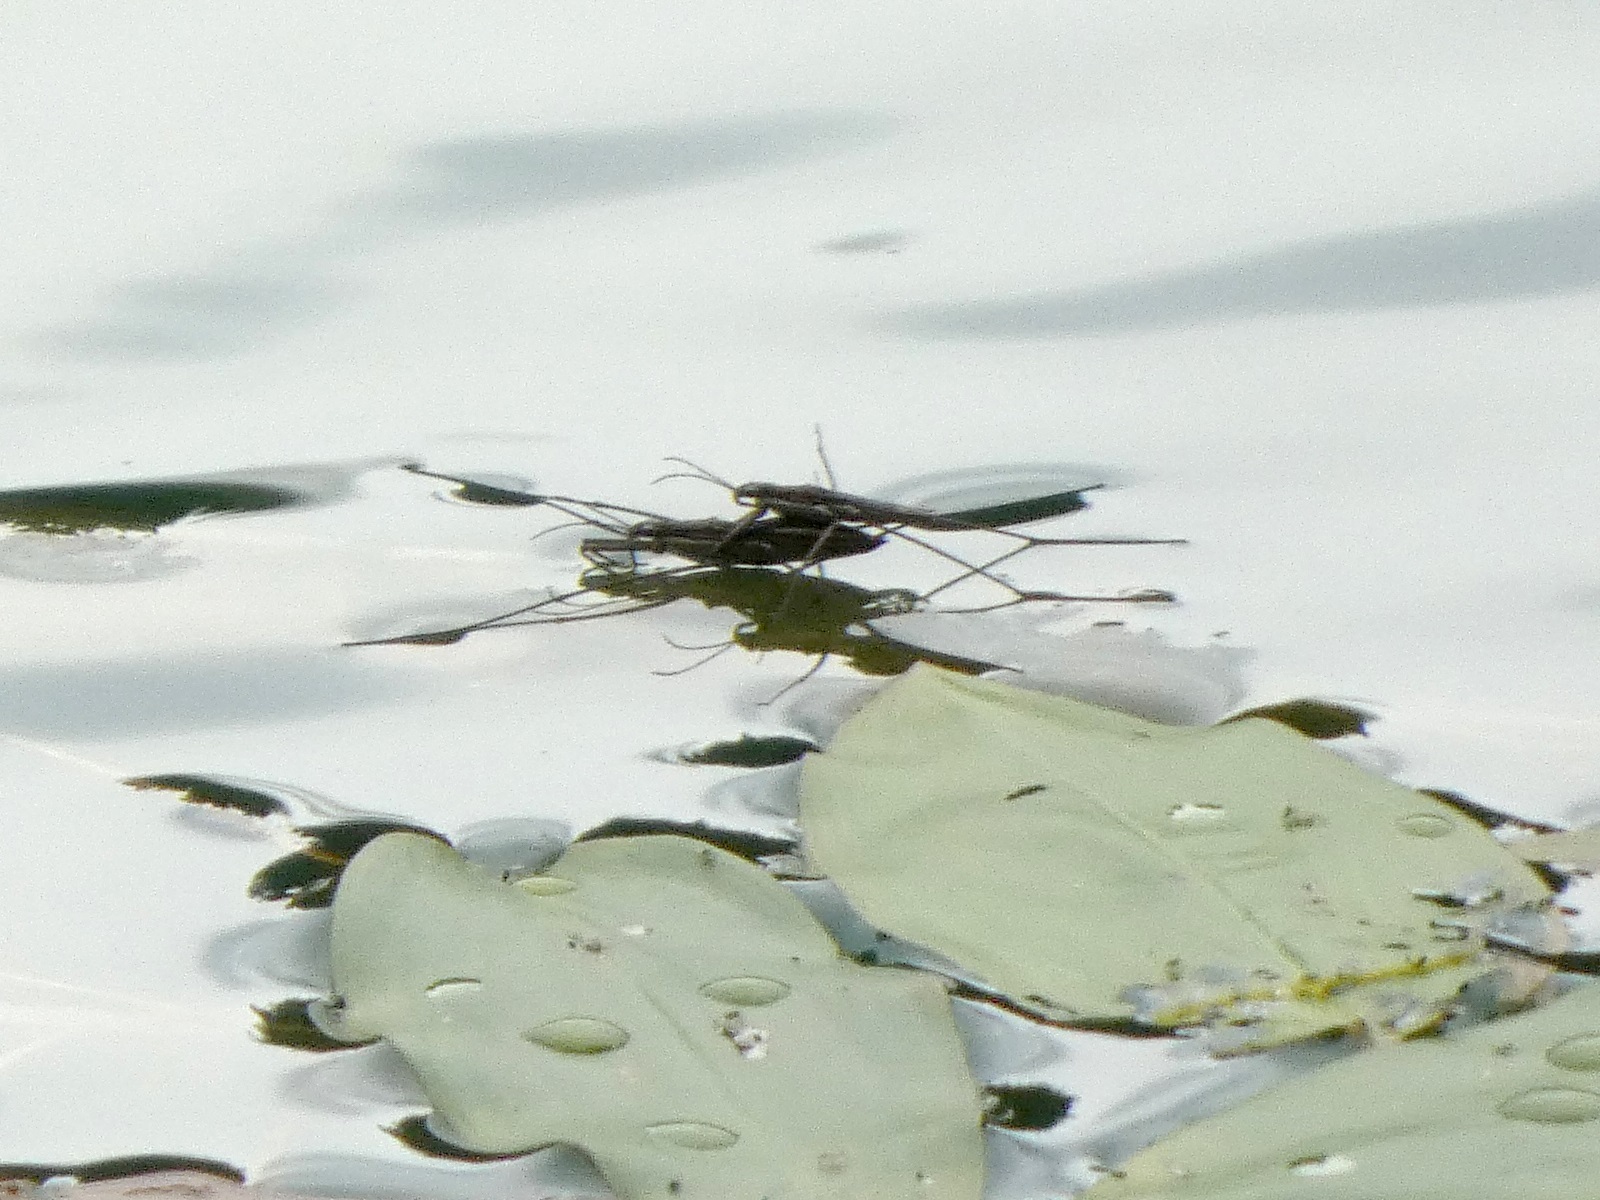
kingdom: Animalia
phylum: Arthropoda
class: Insecta
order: Hemiptera
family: Gerridae
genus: Aquarius
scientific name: Aquarius paludum
